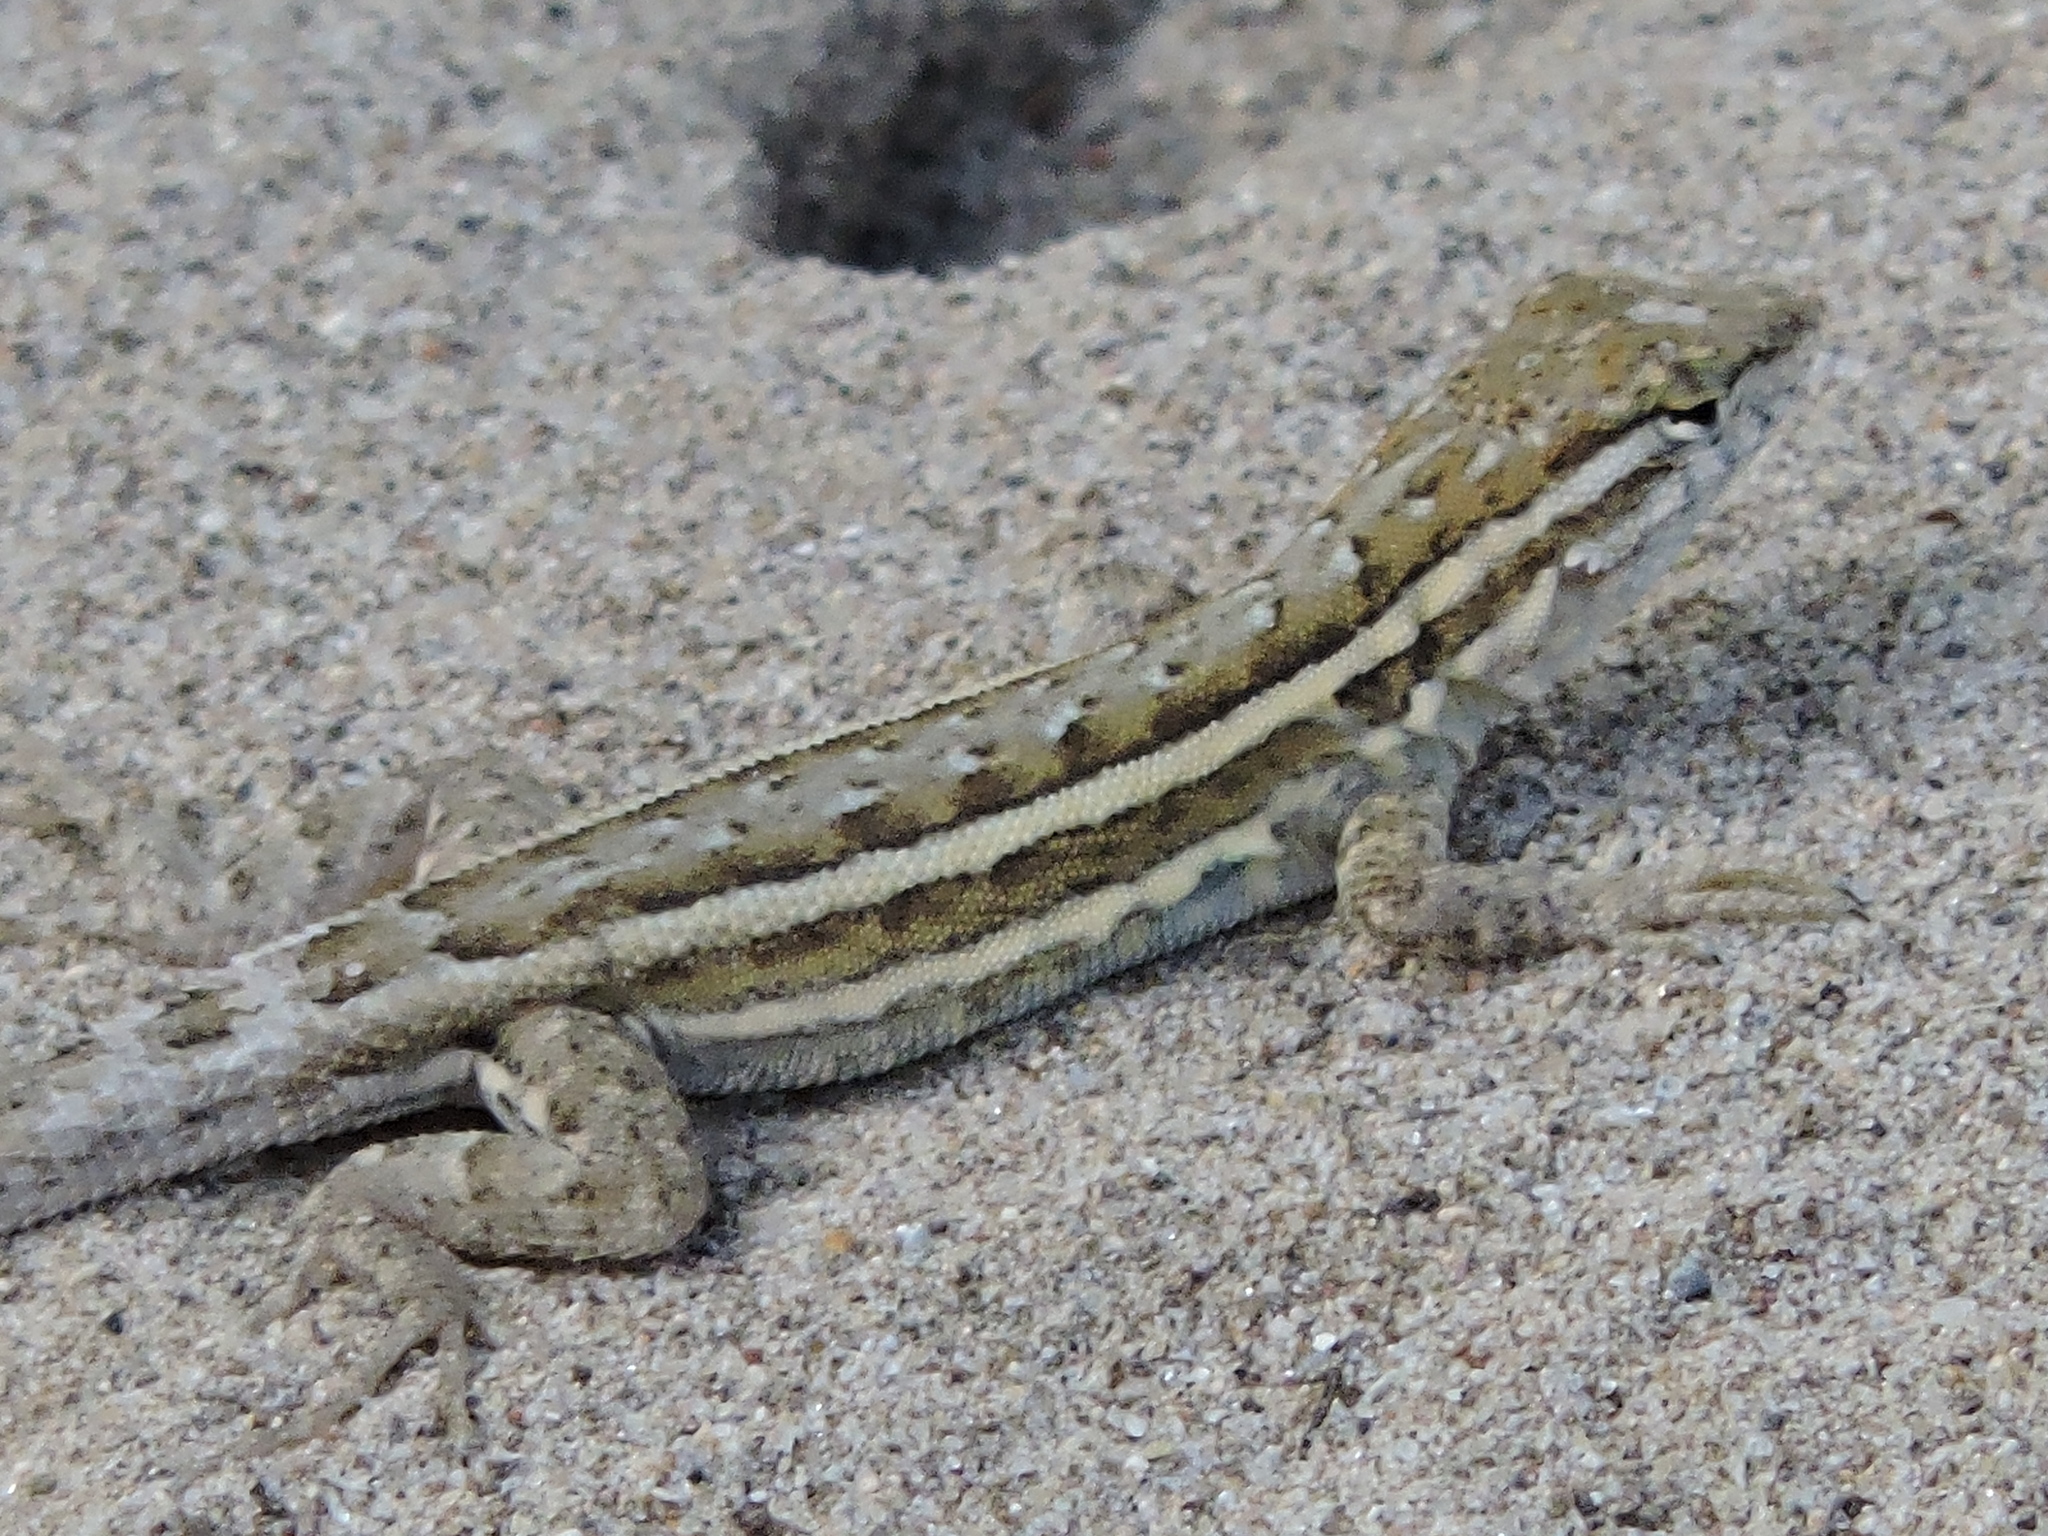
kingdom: Animalia
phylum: Chordata
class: Squamata
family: Phrynosomatidae
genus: Uta
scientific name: Uta stansburiana
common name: Side-blotched lizard
